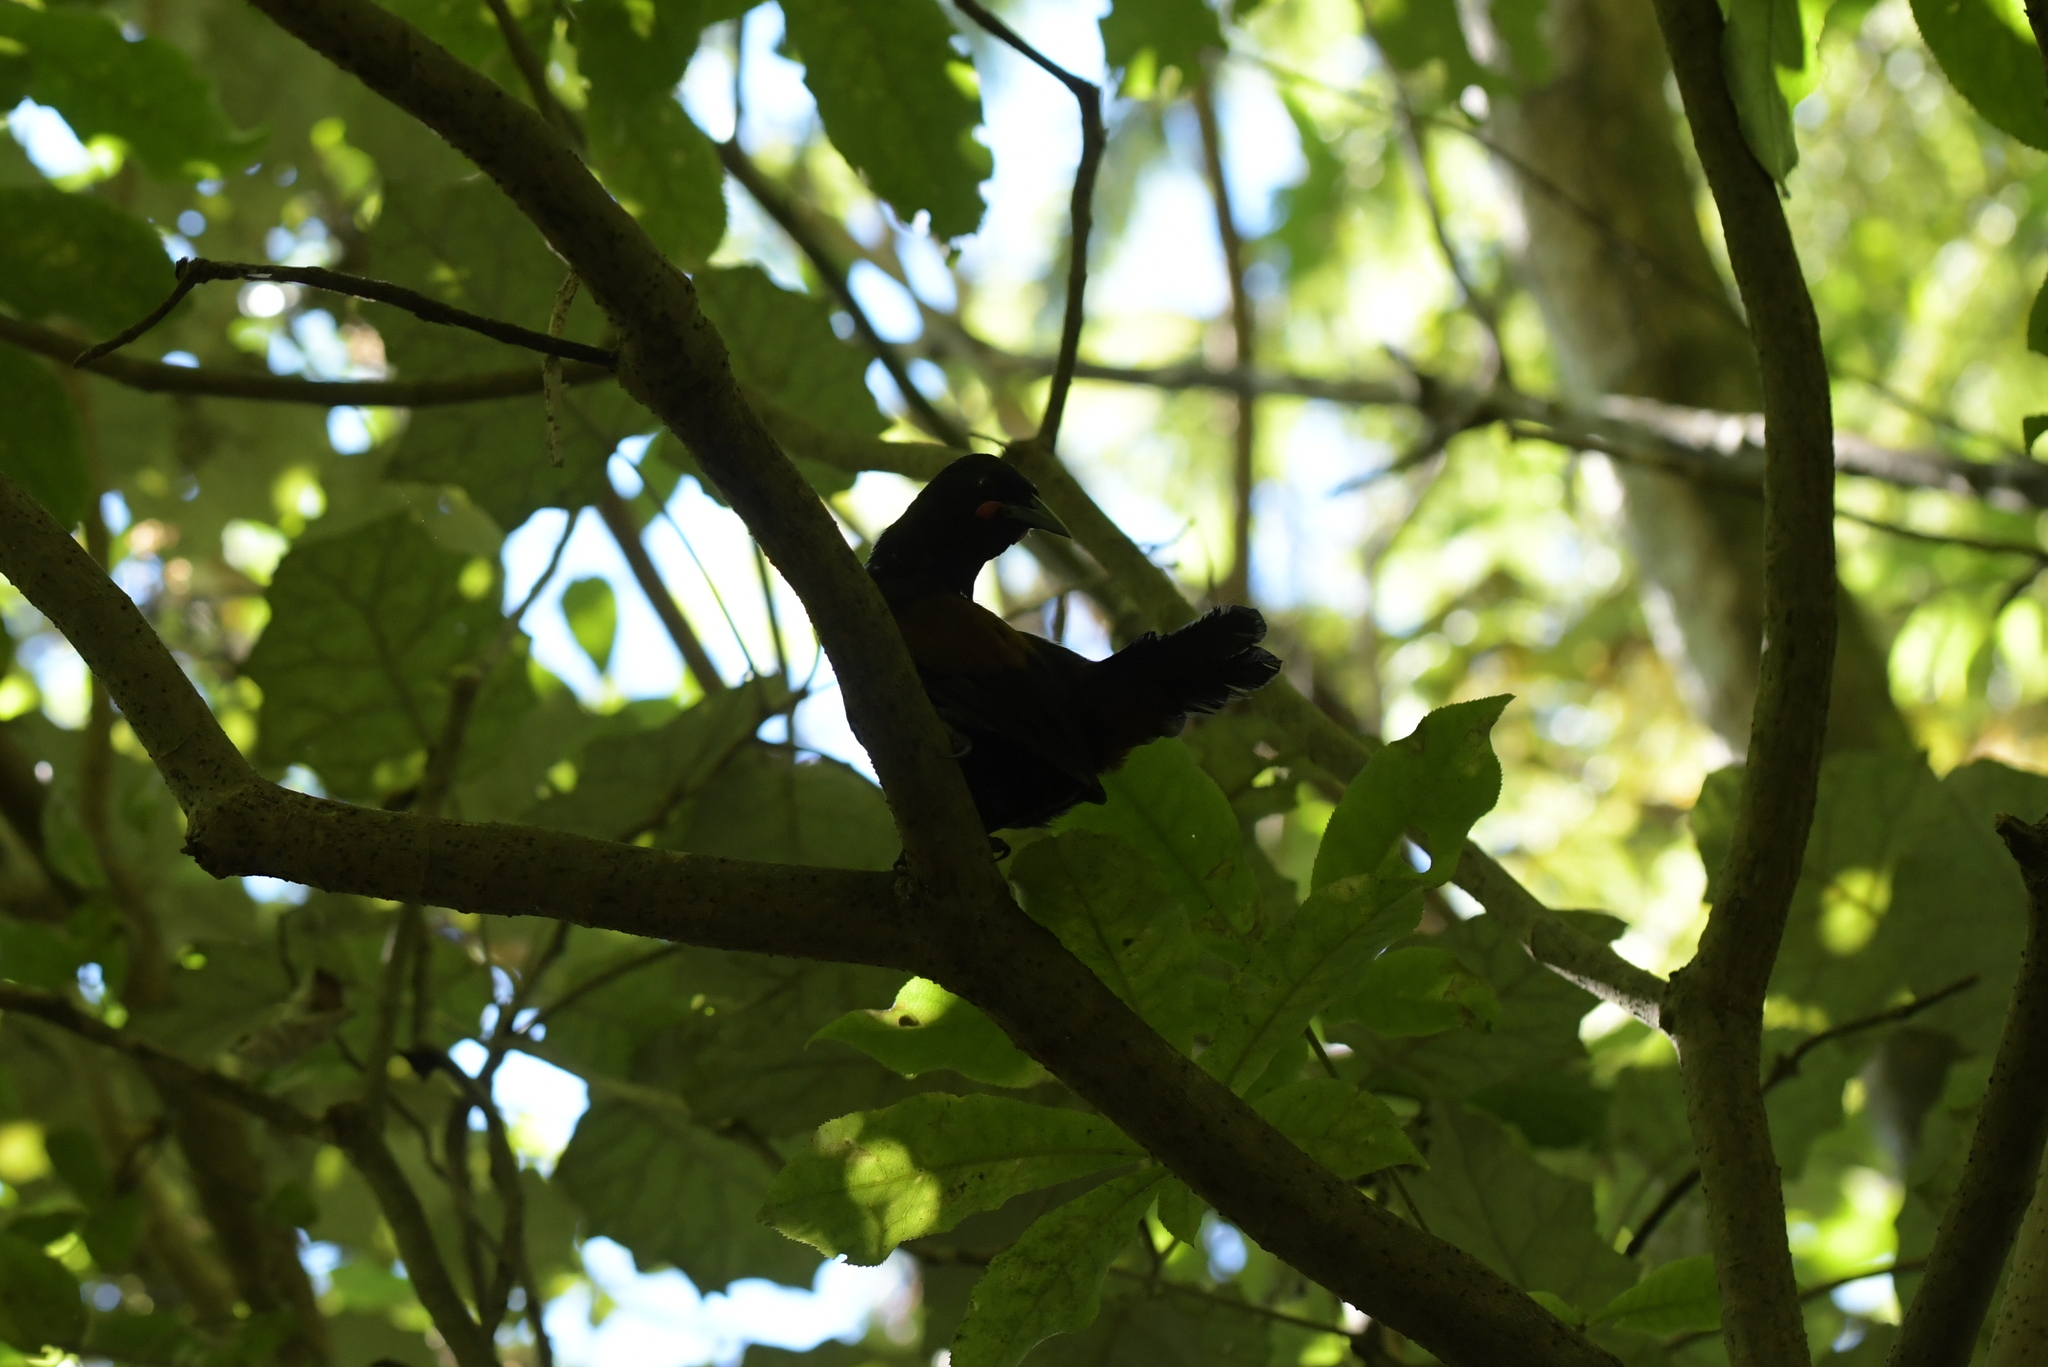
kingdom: Animalia
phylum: Chordata
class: Aves
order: Passeriformes
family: Callaeatidae
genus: Philesturnus
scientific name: Philesturnus carunculatus
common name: South island saddleback
